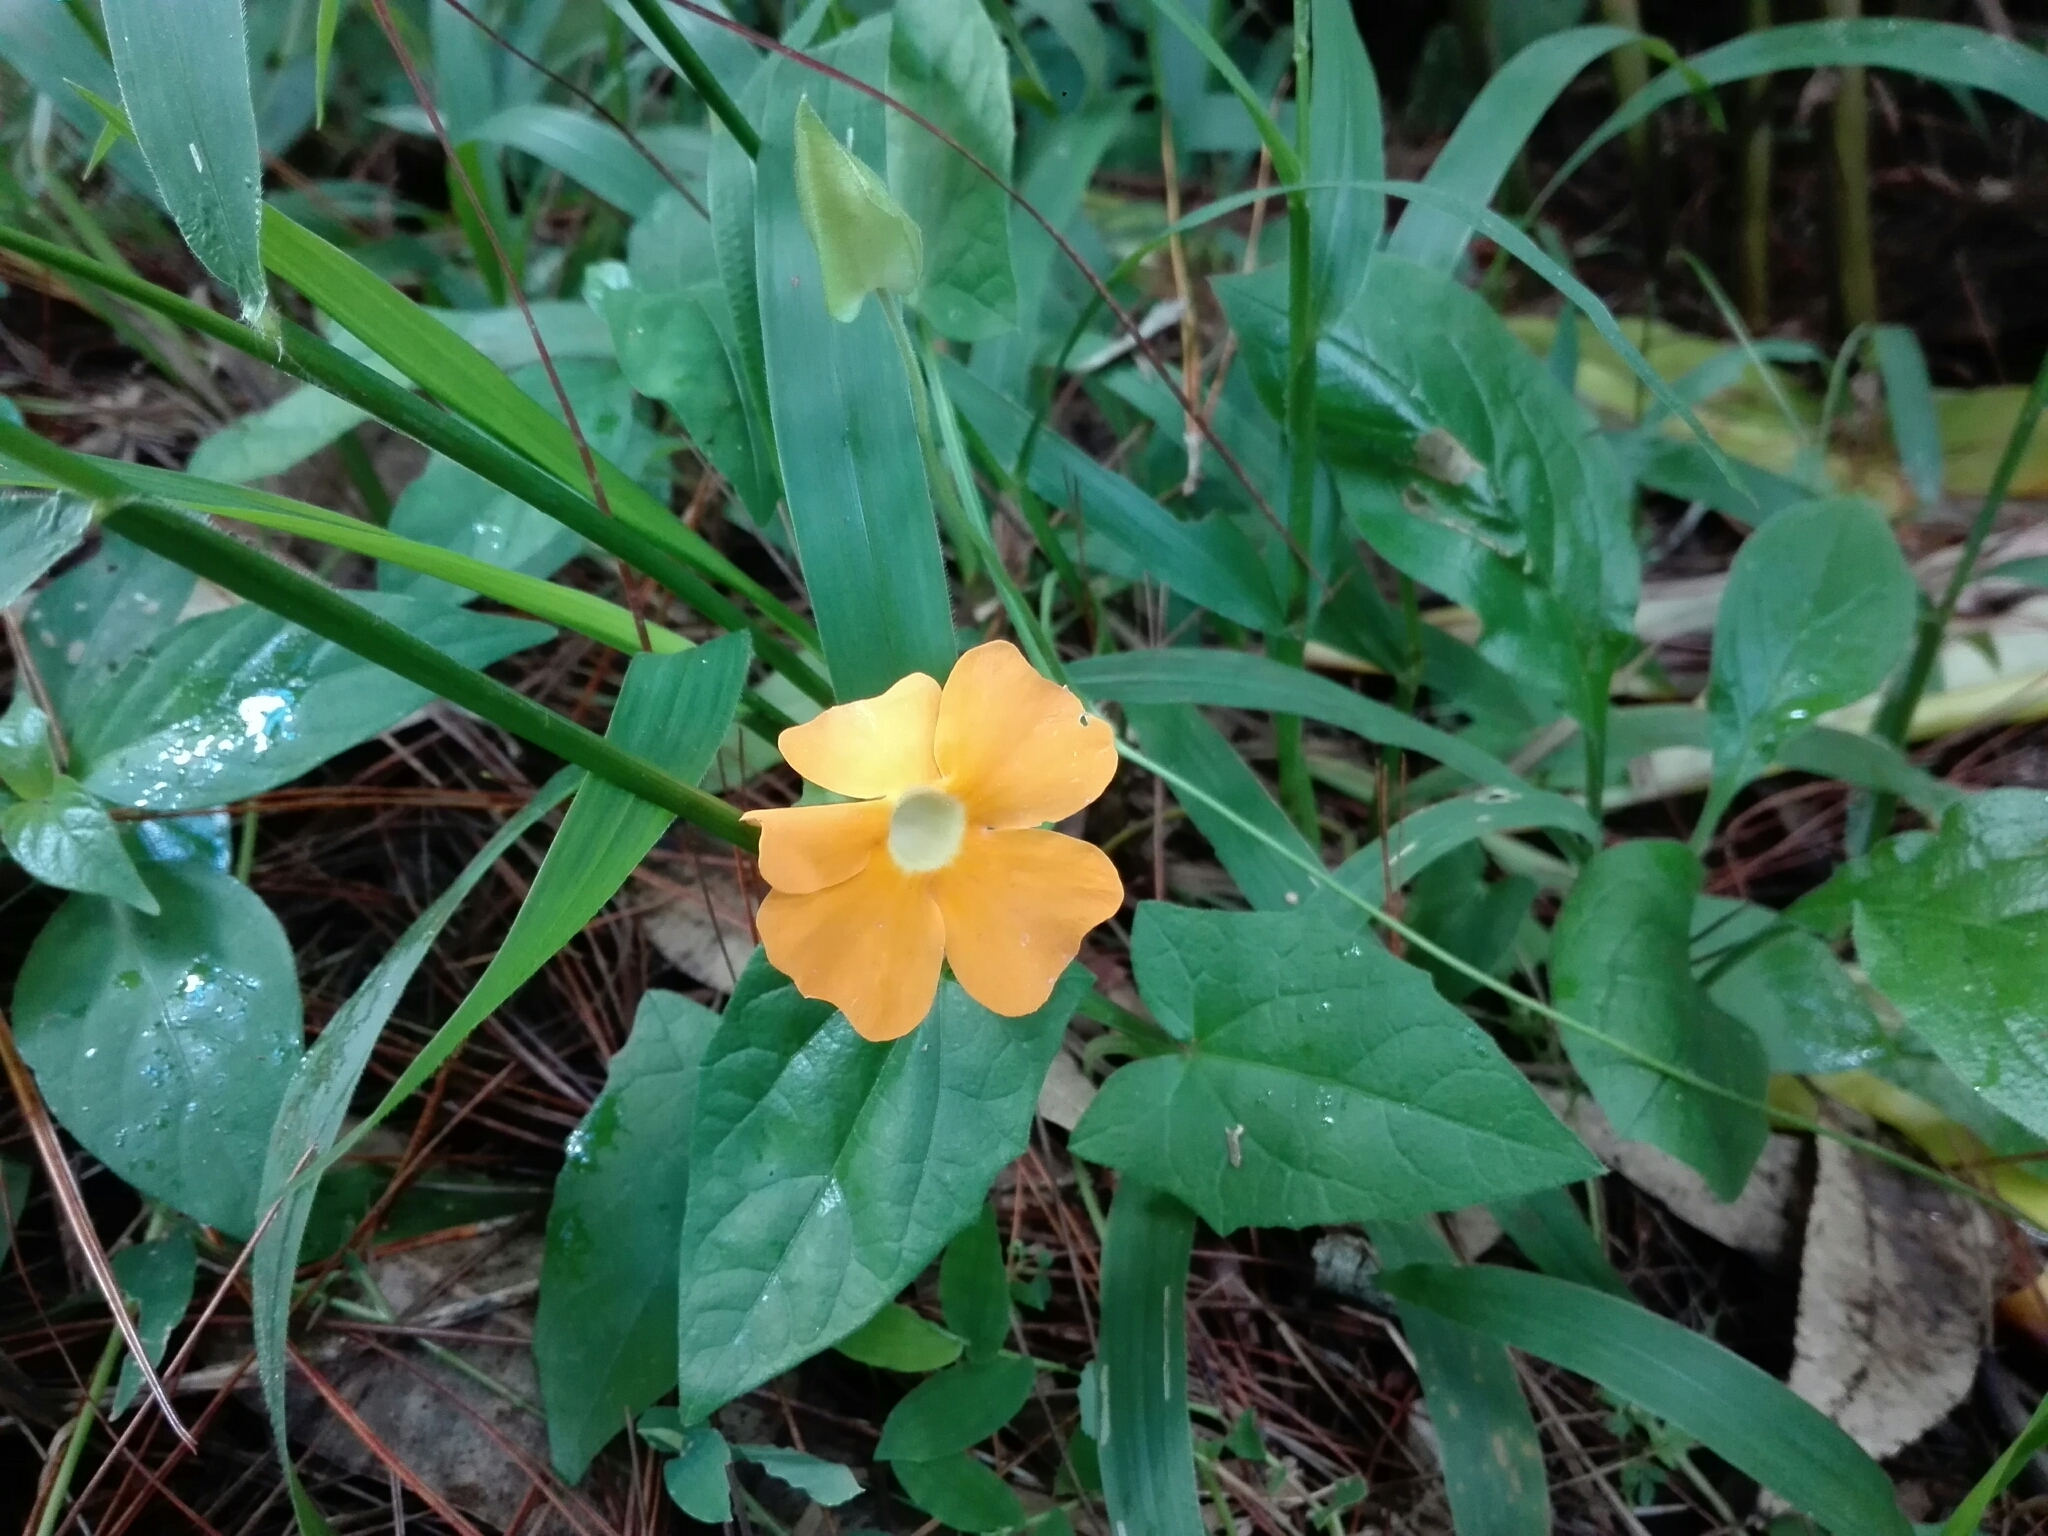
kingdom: Plantae
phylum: Tracheophyta
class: Magnoliopsida
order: Lamiales
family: Acanthaceae
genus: Thunbergia
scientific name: Thunbergia alata
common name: Blackeyed susan vine
